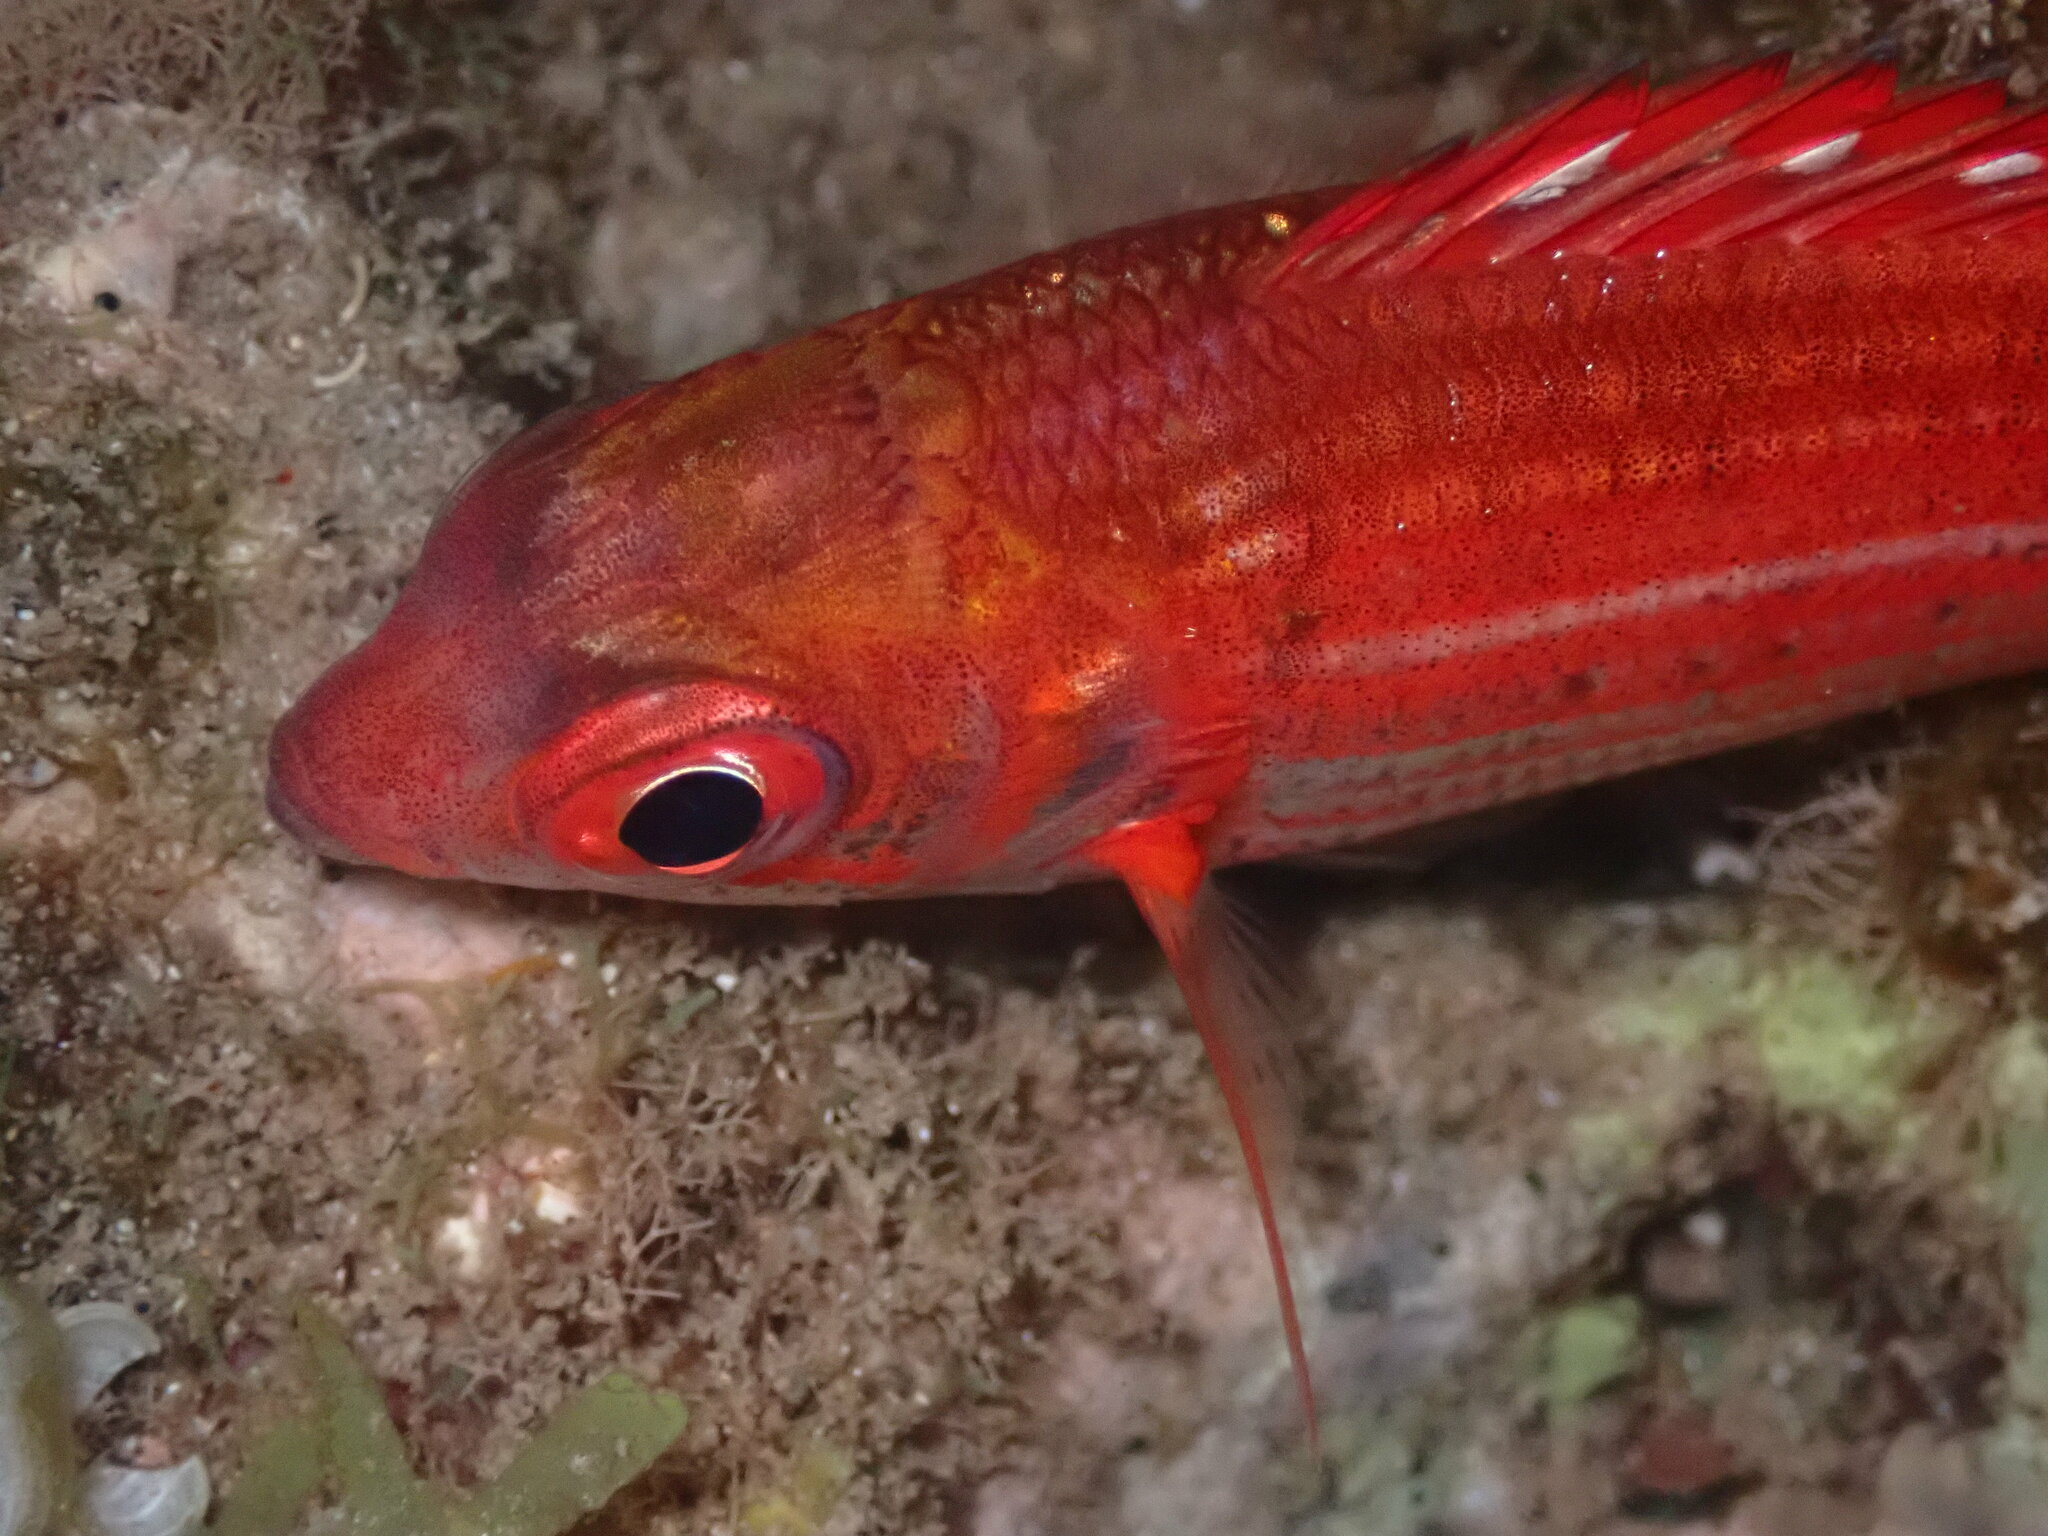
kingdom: Animalia
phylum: Chordata
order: Beryciformes
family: Holocentridae
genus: Sargocentron
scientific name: Sargocentron punctatissimum
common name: Peppered squirrelfish
